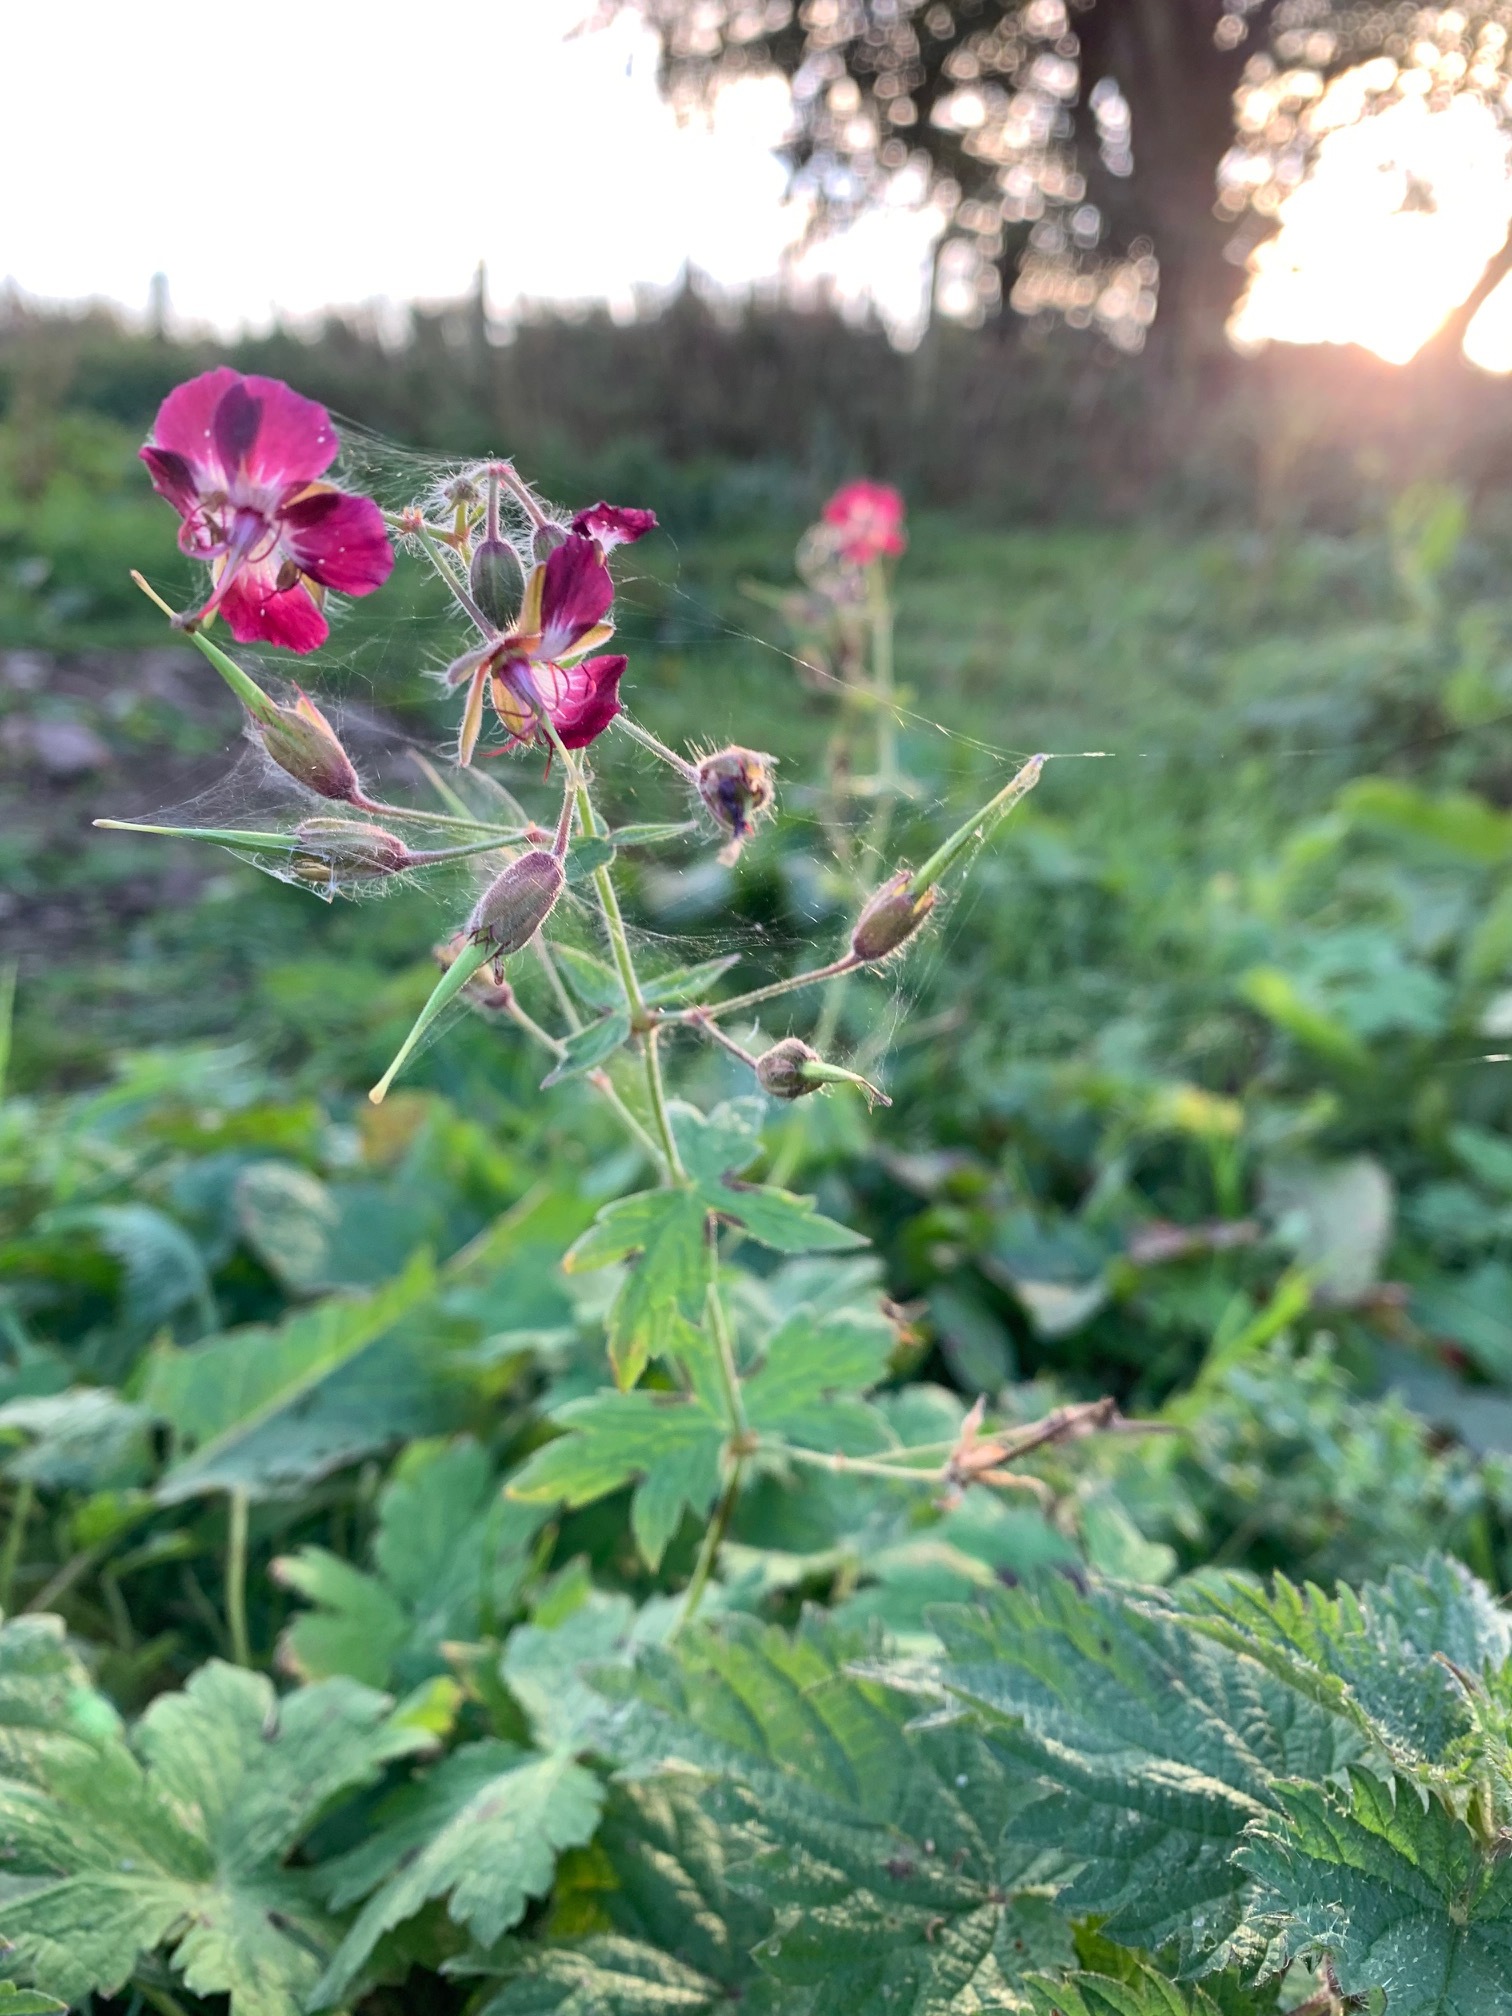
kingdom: Plantae
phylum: Tracheophyta
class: Magnoliopsida
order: Geraniales
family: Geraniaceae
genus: Geranium
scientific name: Geranium phaeum
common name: Dusky crane's-bill
